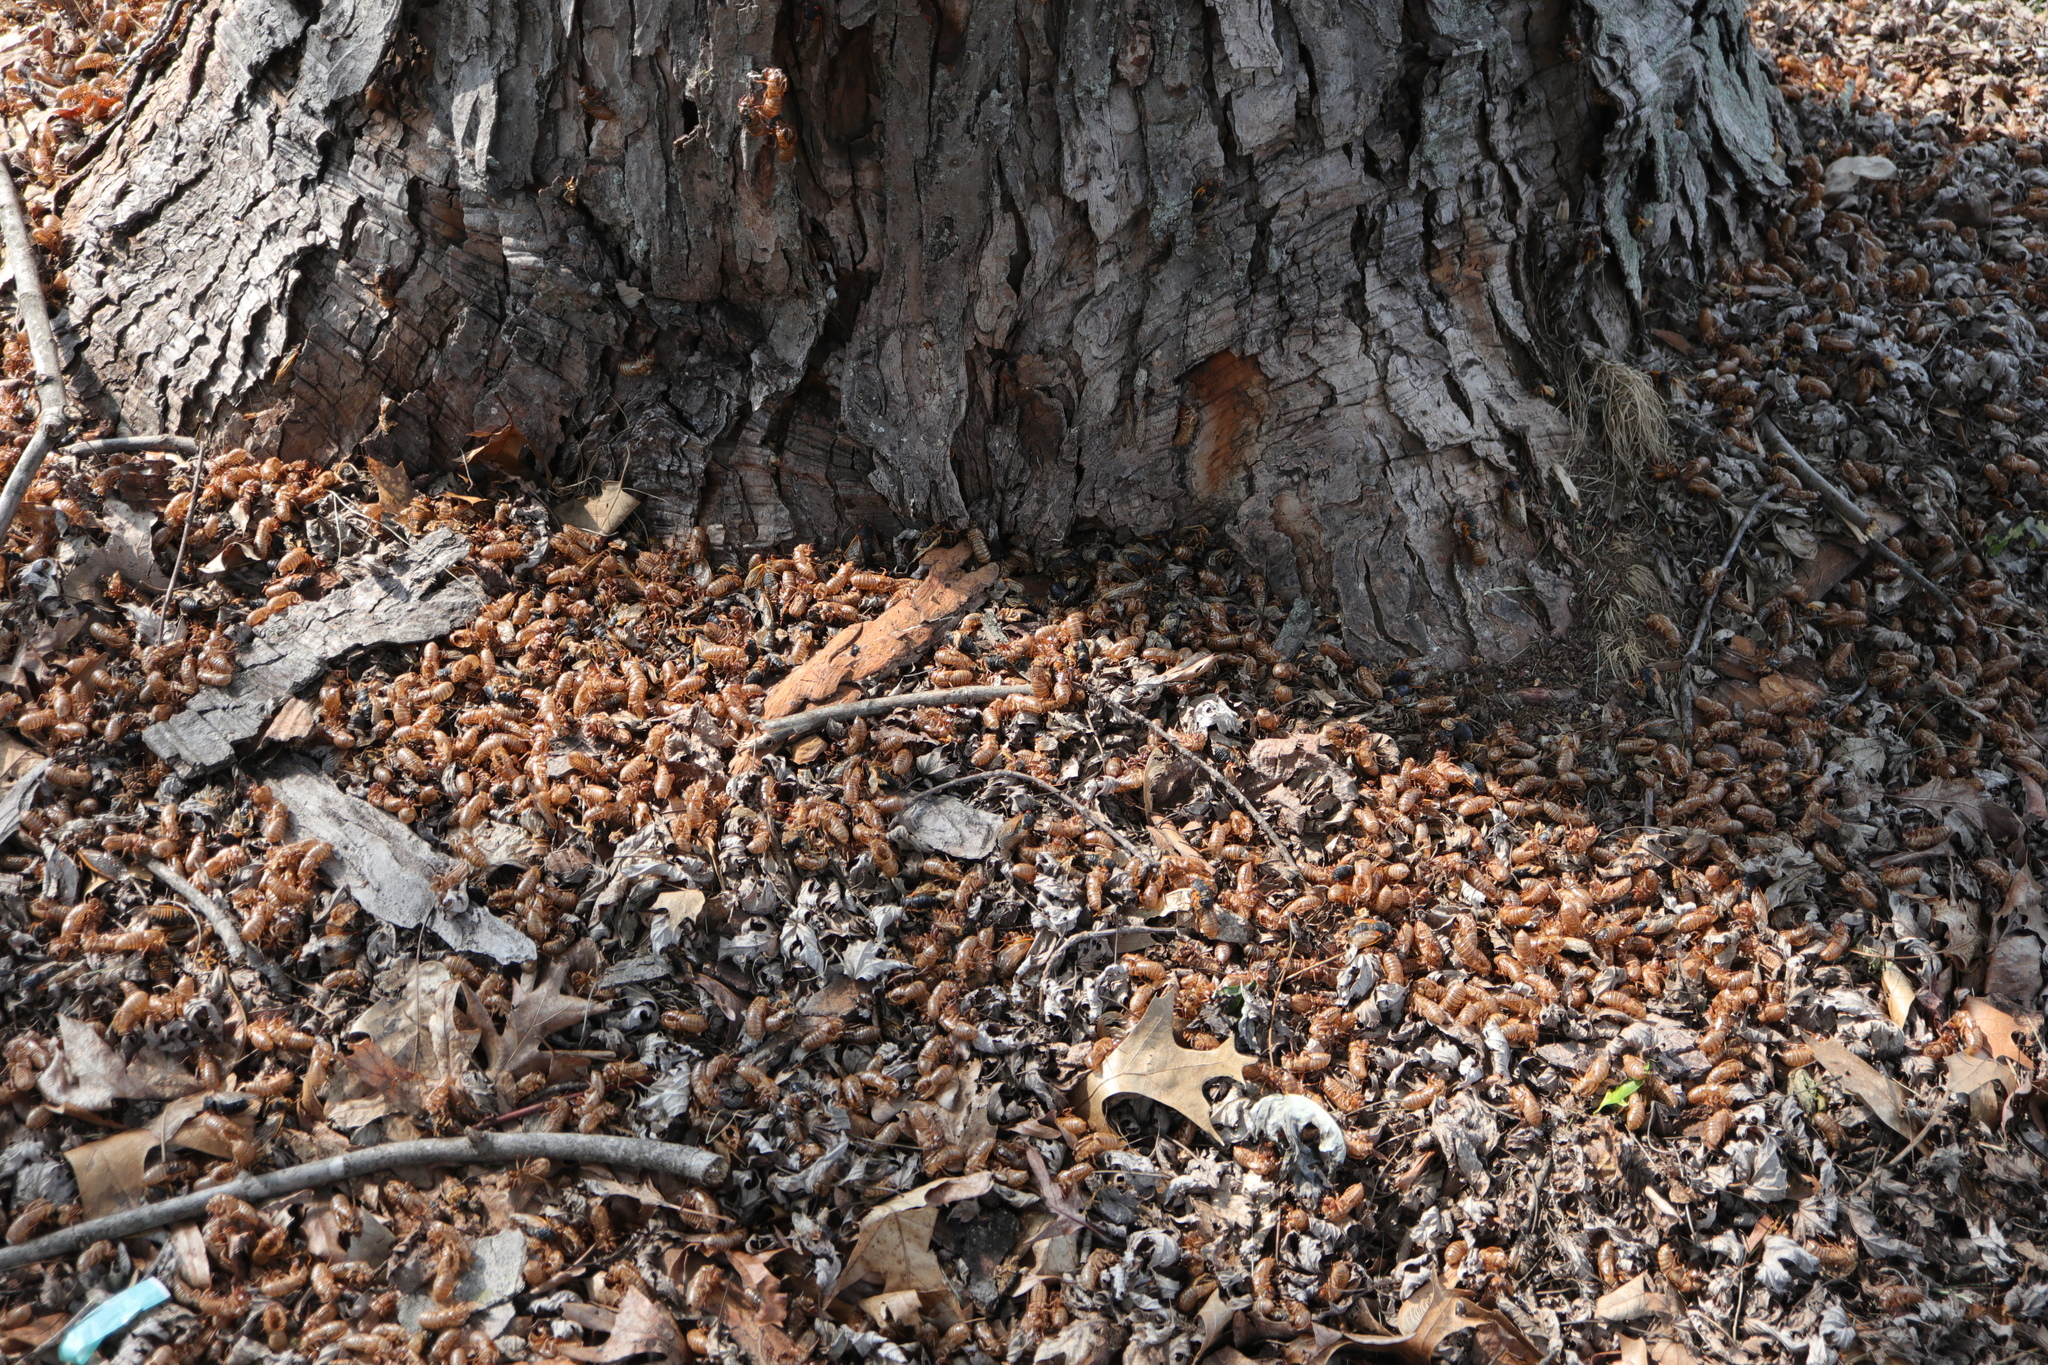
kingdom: Animalia
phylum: Arthropoda
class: Insecta
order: Hemiptera
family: Cicadidae
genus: Magicicada
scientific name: Magicicada
